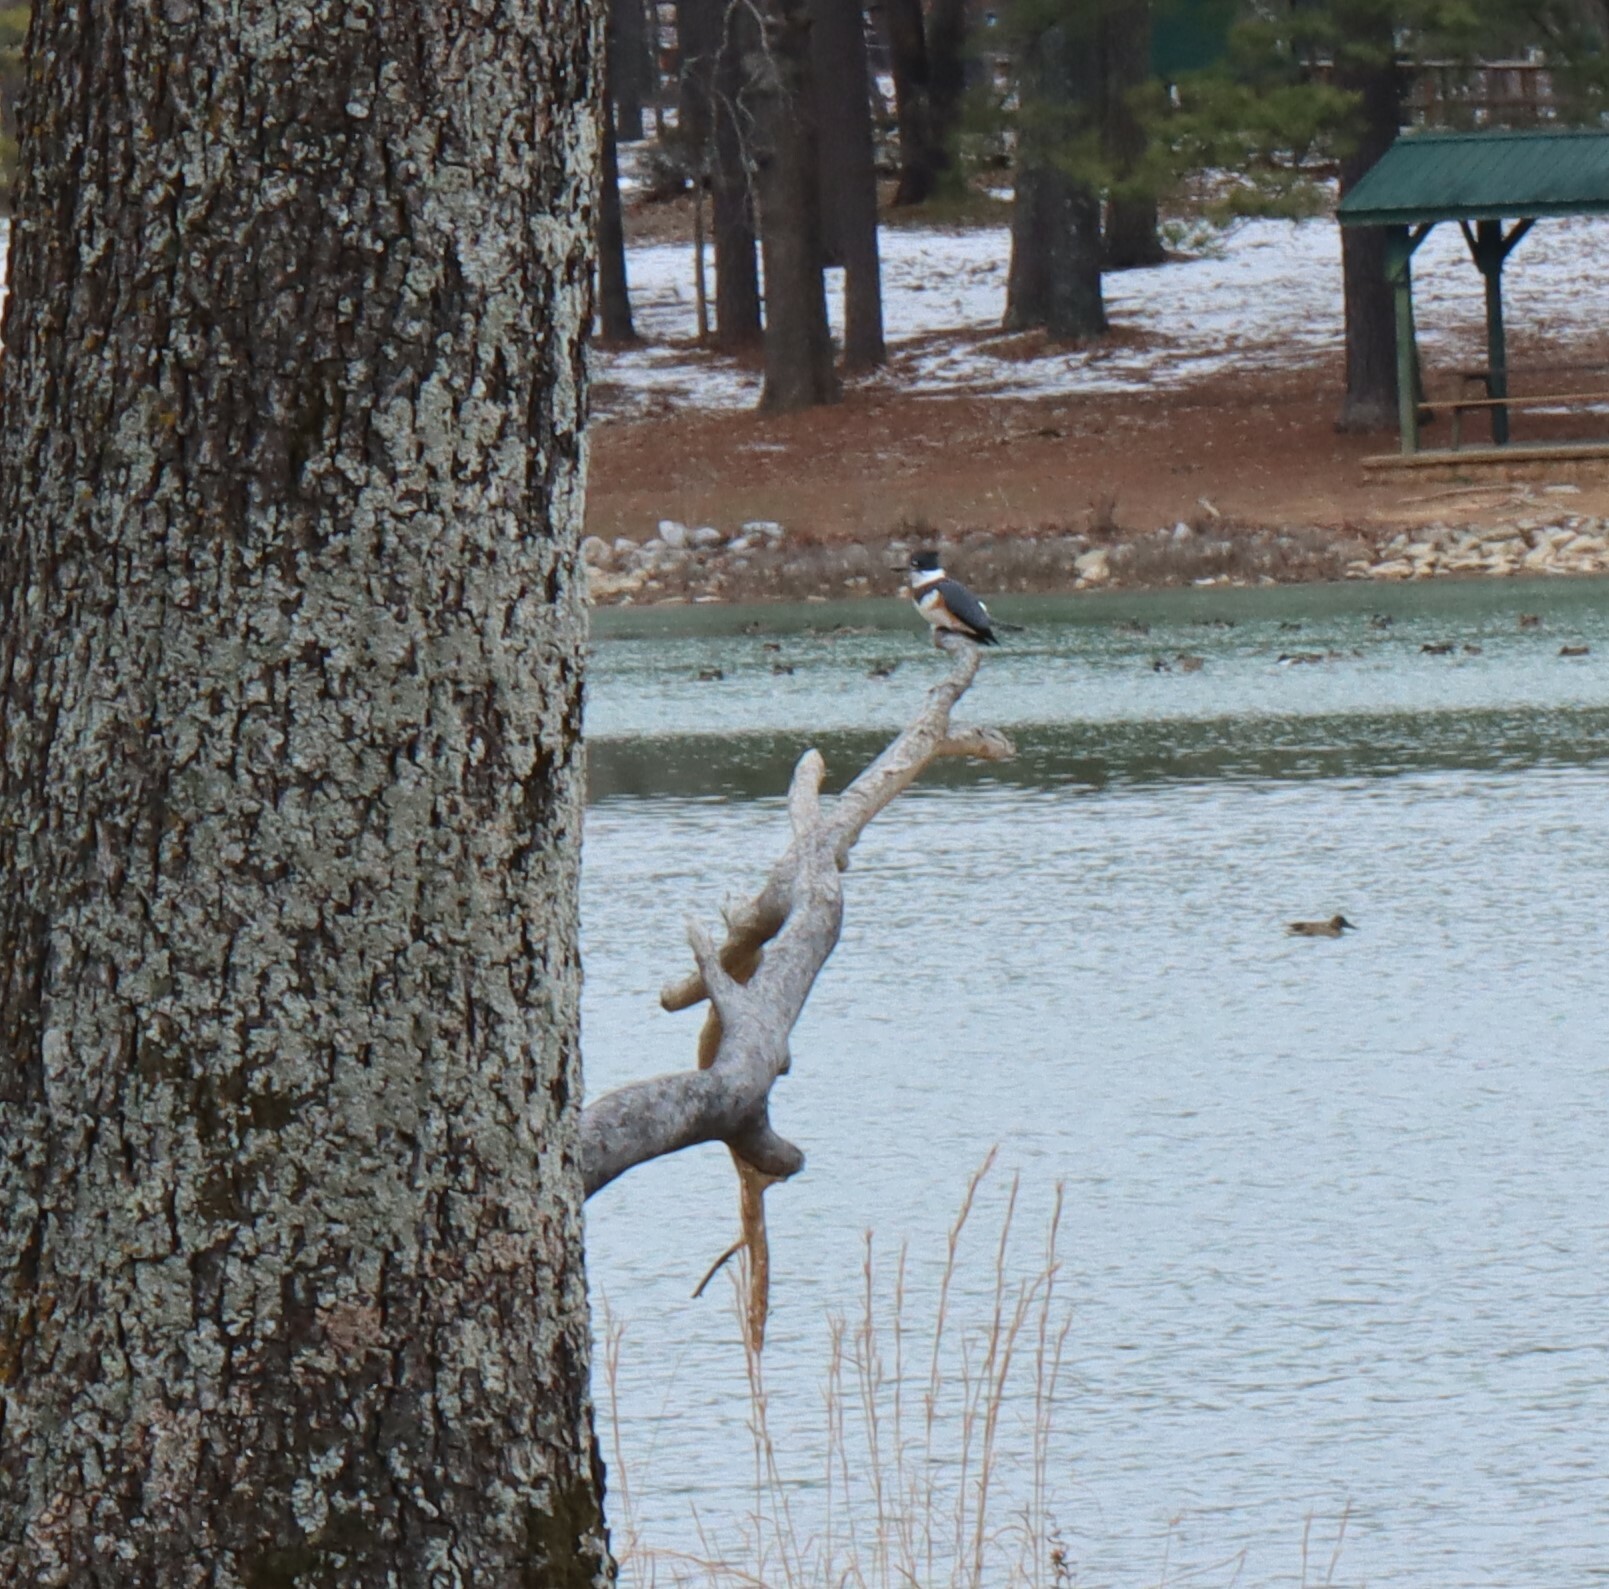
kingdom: Animalia
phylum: Chordata
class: Aves
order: Coraciiformes
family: Alcedinidae
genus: Megaceryle
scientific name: Megaceryle alcyon
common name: Belted kingfisher
